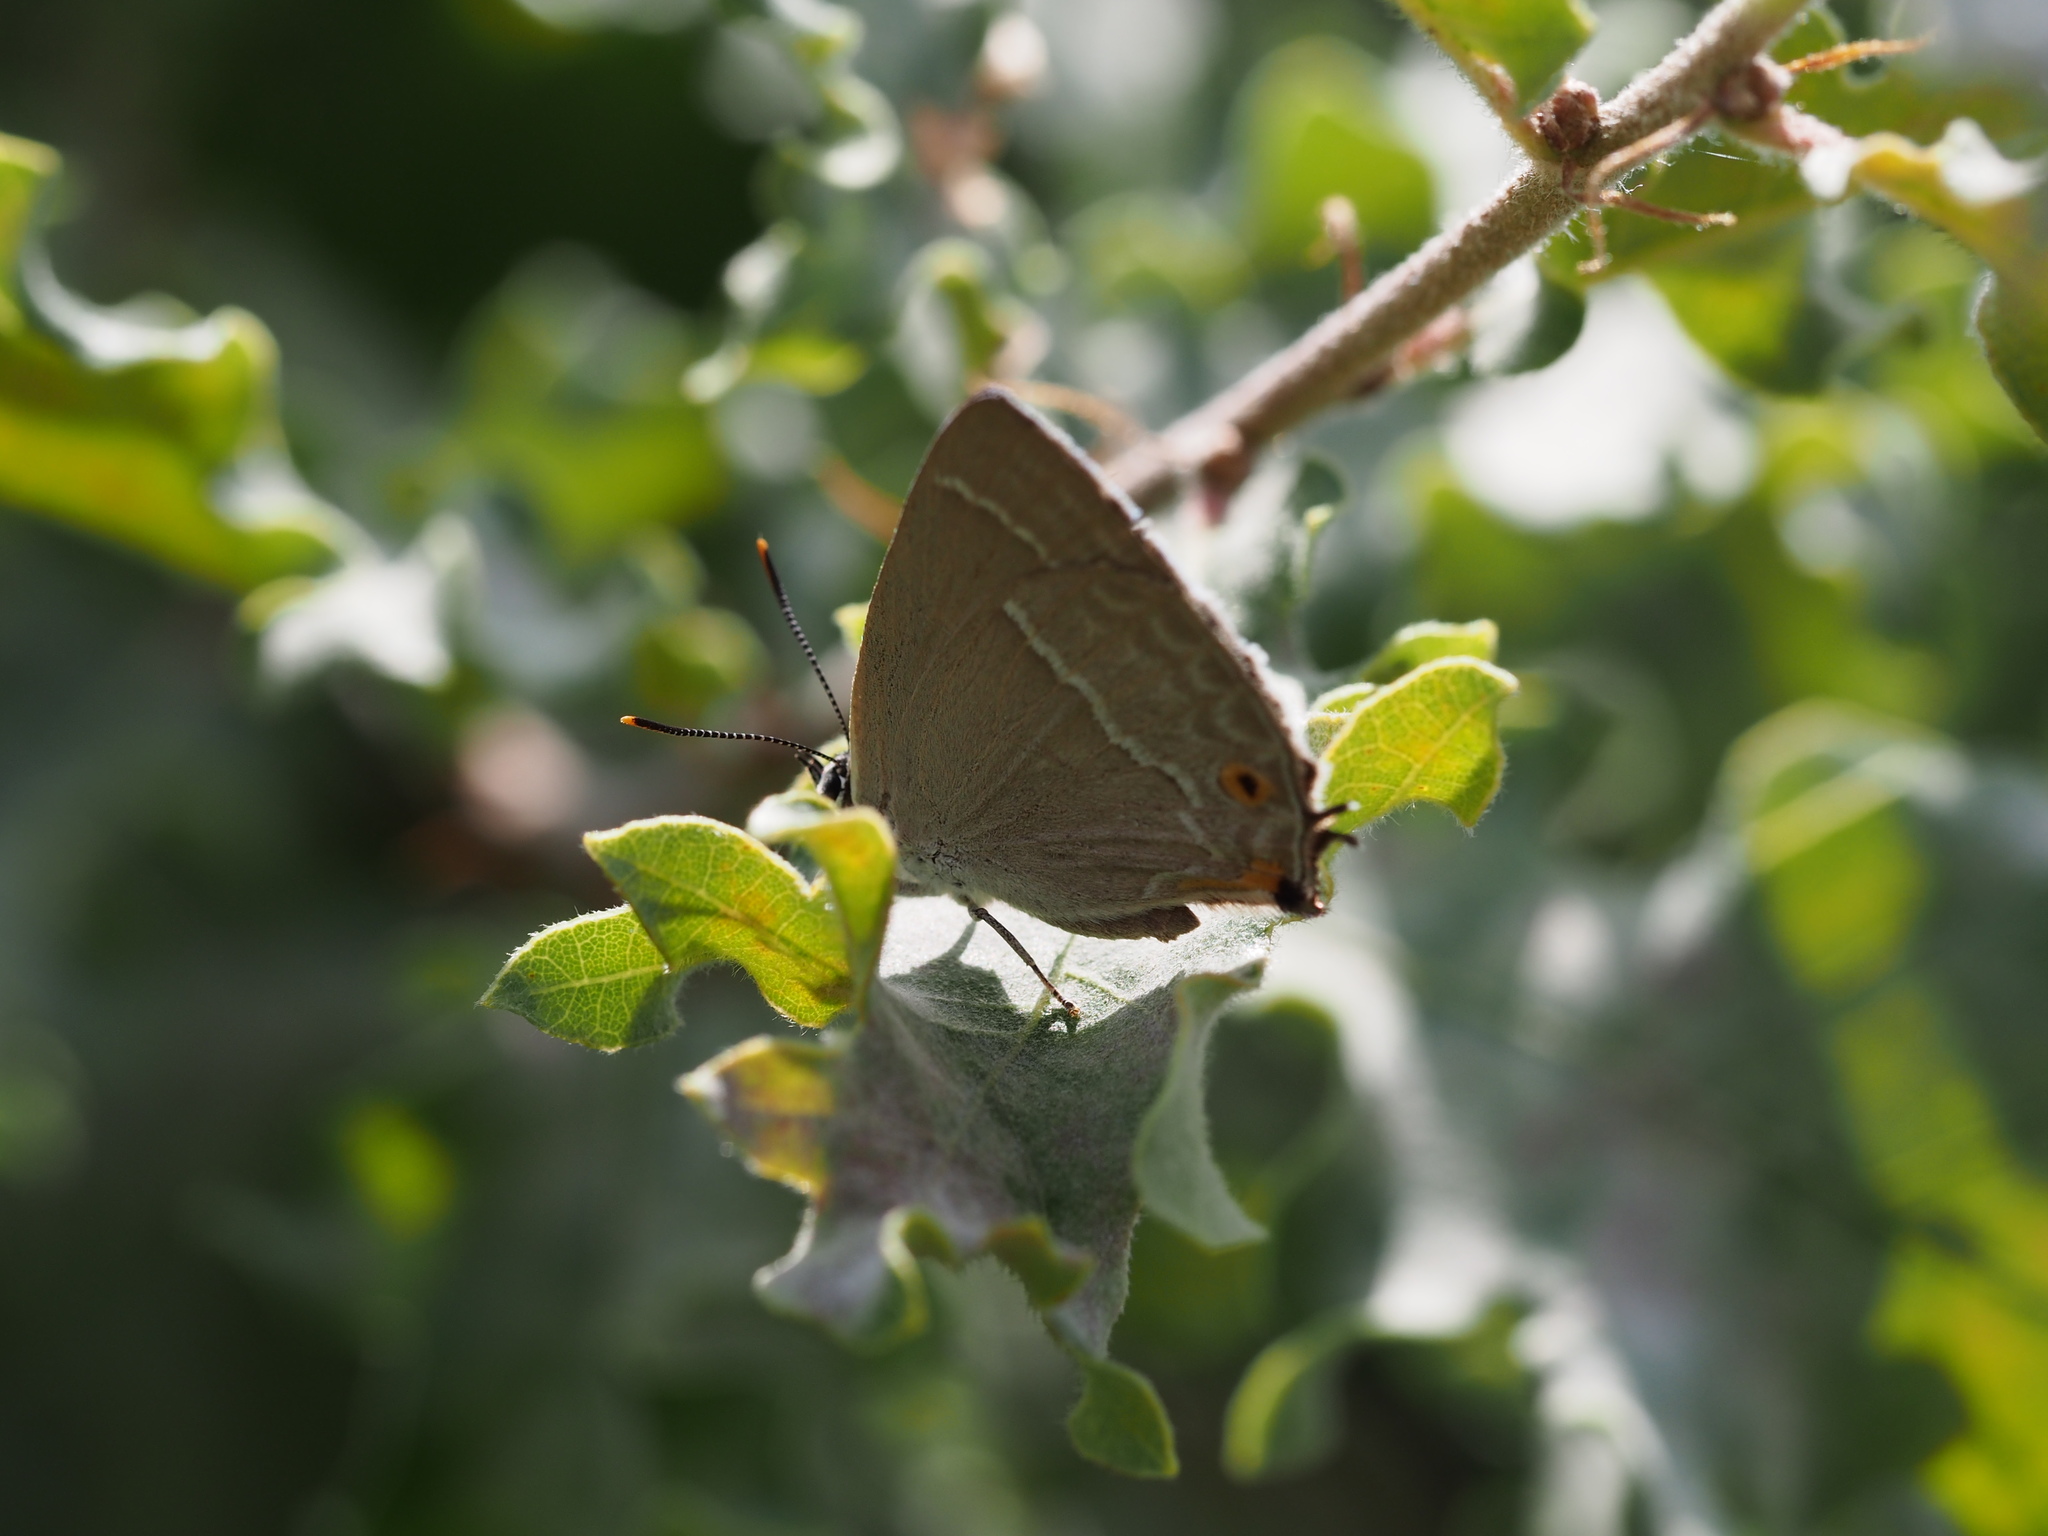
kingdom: Animalia
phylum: Arthropoda
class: Insecta
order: Lepidoptera
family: Lycaenidae
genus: Quercusia
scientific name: Quercusia quercus
